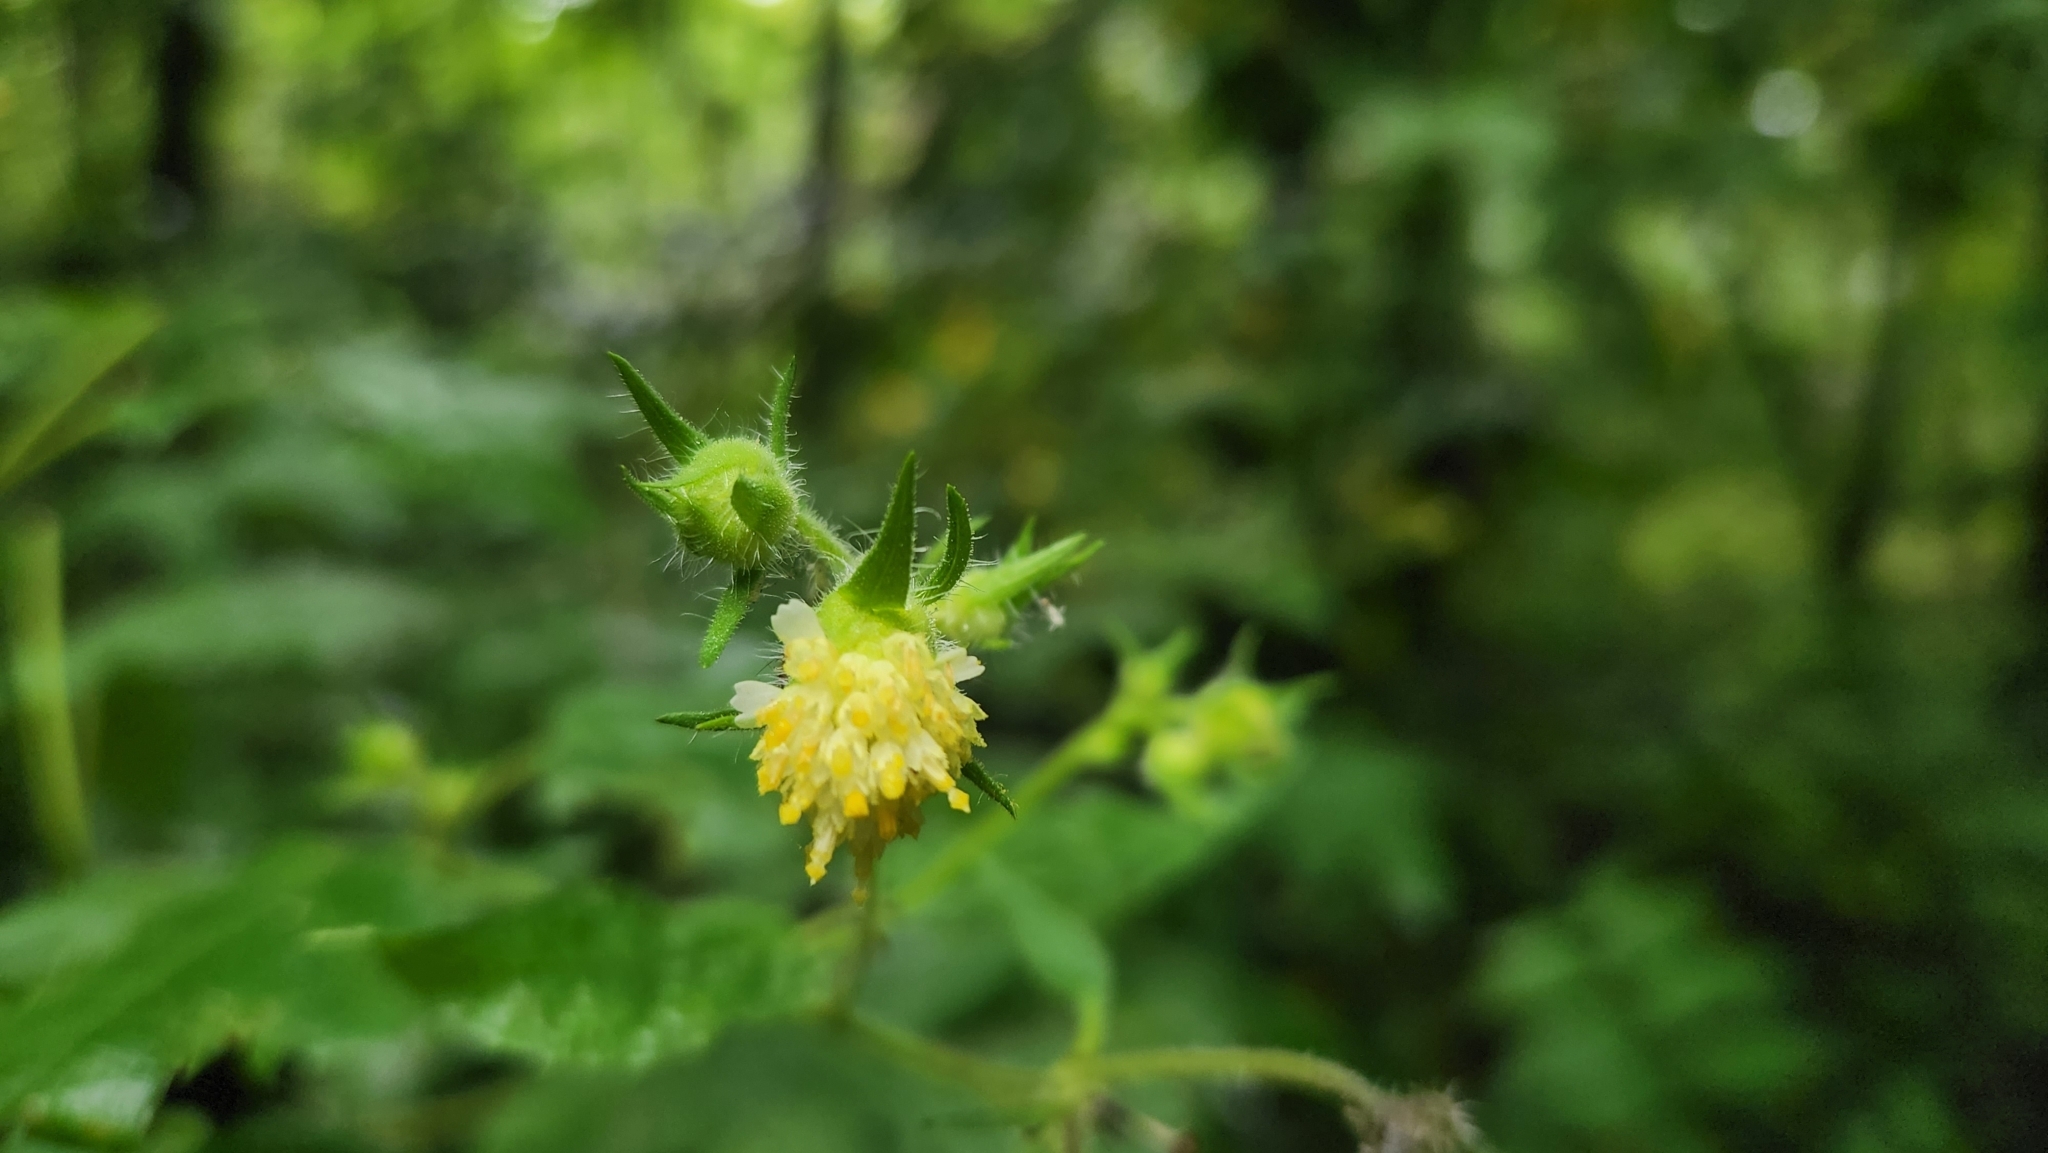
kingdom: Plantae
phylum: Tracheophyta
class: Magnoliopsida
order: Asterales
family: Asteraceae
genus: Polymnia
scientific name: Polymnia canadensis
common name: Pale-flowered leafcup
